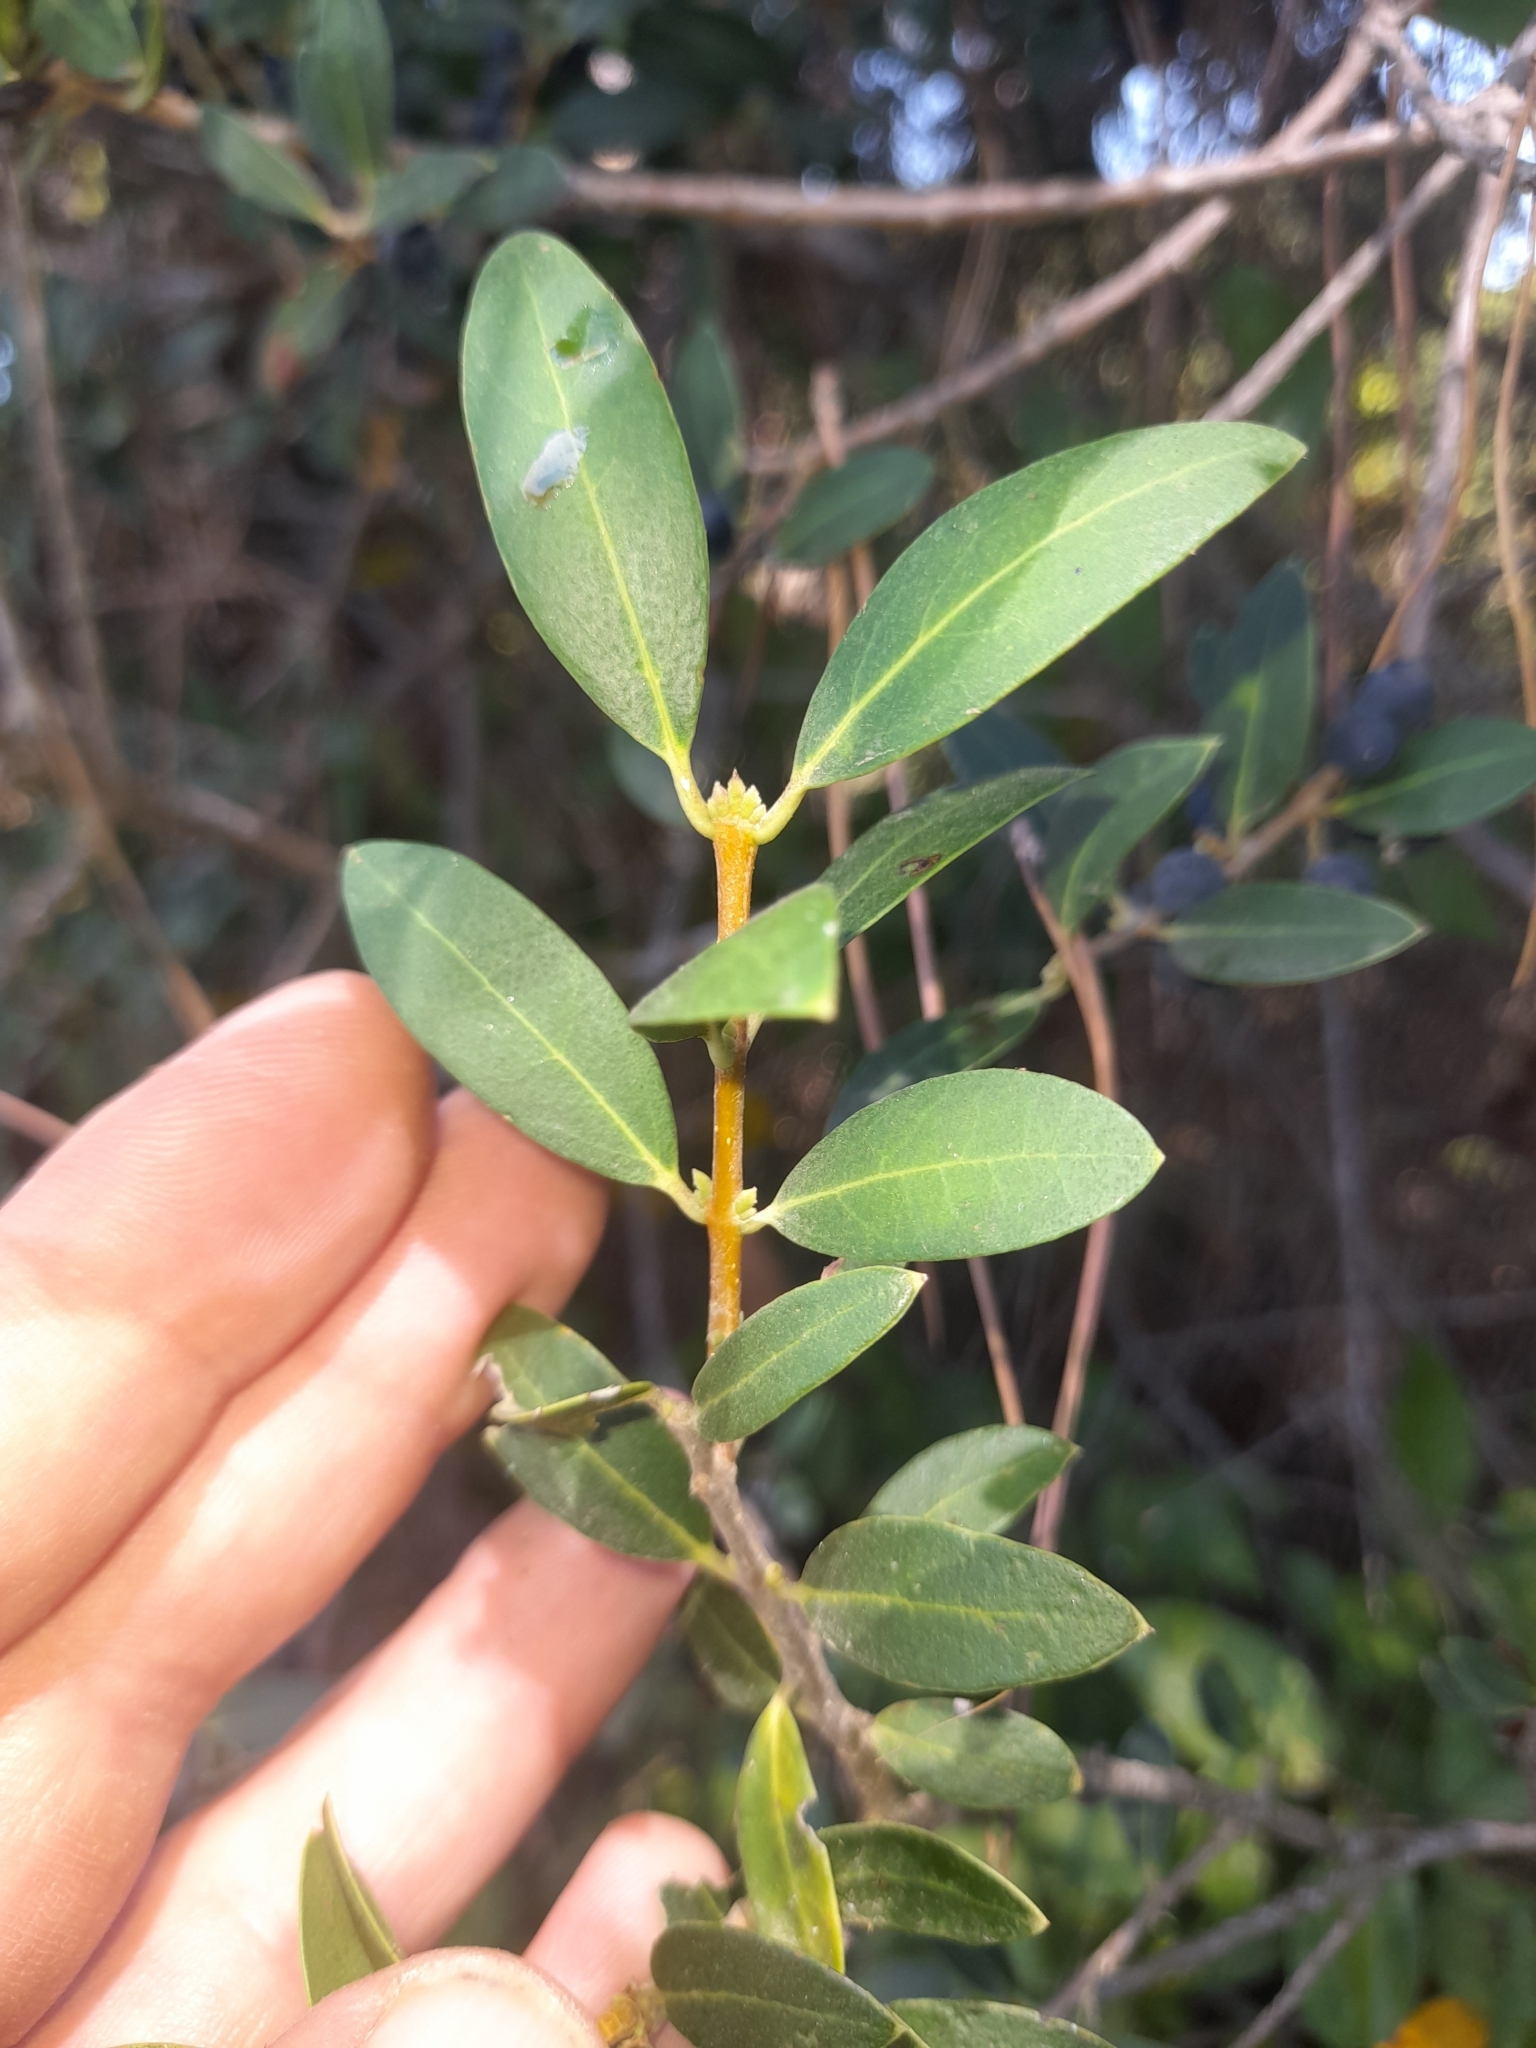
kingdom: Plantae
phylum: Tracheophyta
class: Magnoliopsida
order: Lamiales
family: Oleaceae
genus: Phillyrea
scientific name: Phillyrea angustifolia
